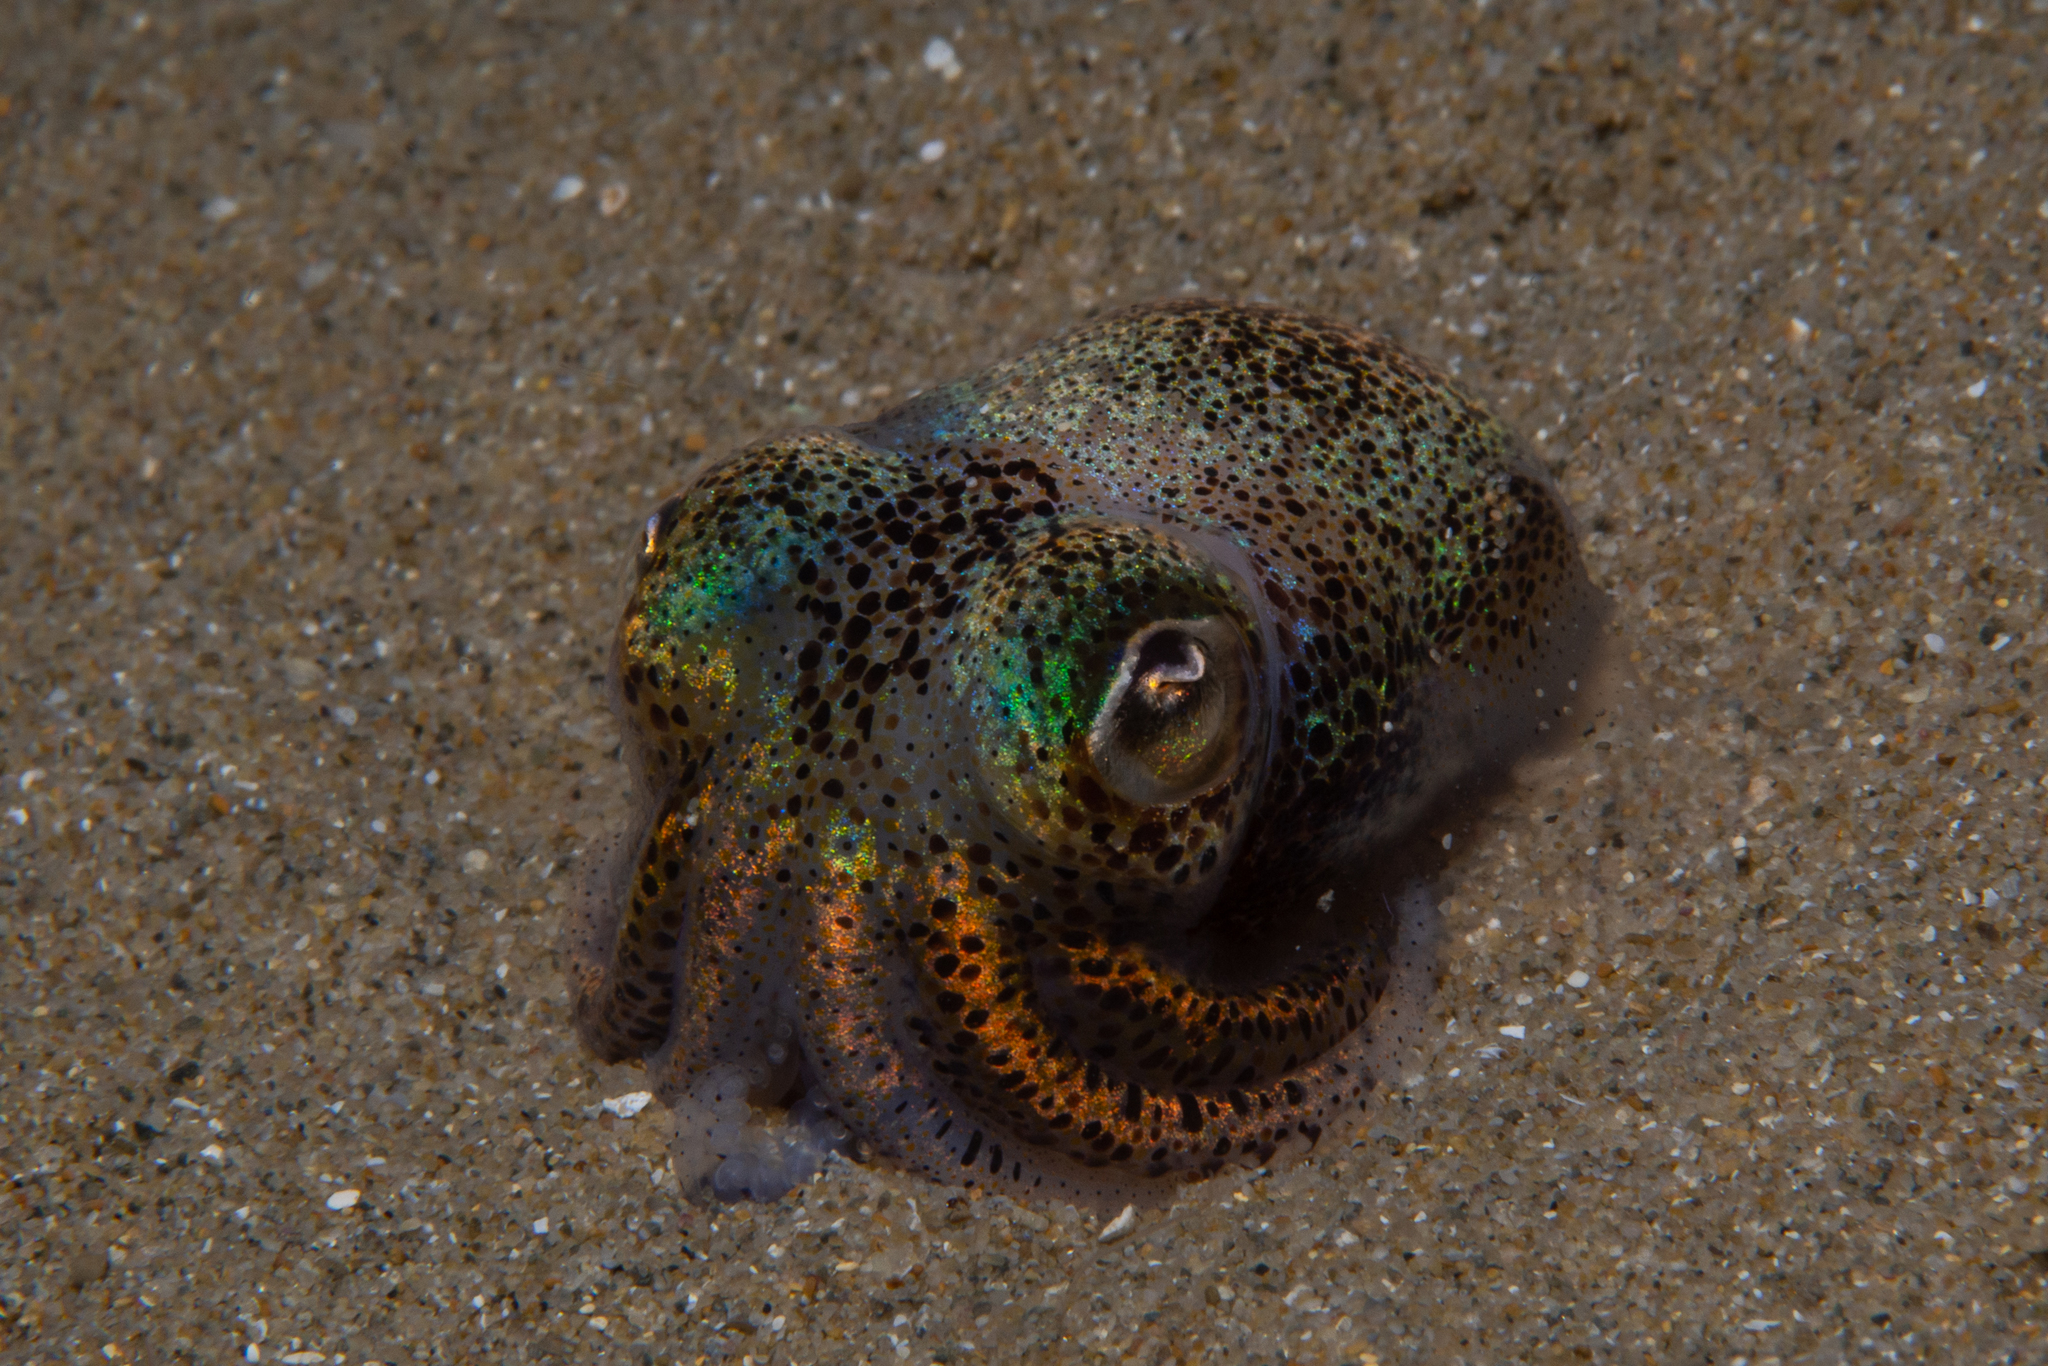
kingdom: Animalia
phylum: Mollusca
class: Cephalopoda
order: Sepiida
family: Sepiolidae
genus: Euprymna
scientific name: Euprymna tasmanica
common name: Southern bobtail squid
